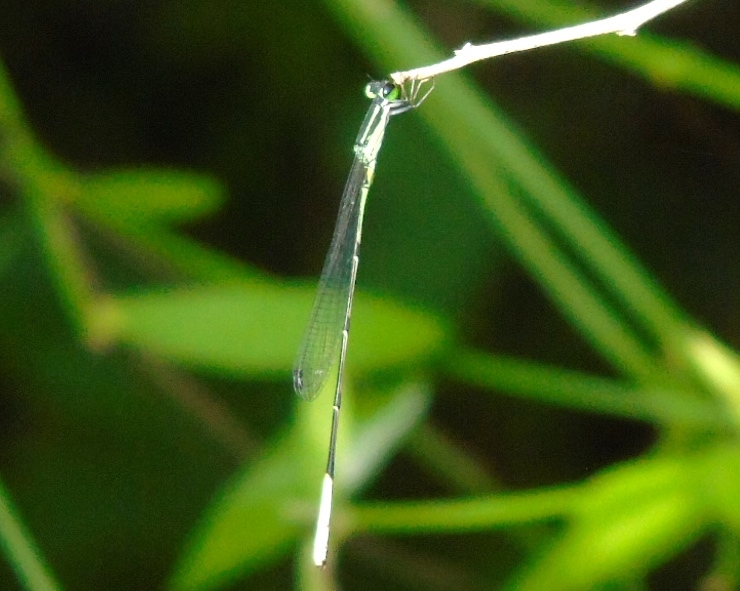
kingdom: Animalia
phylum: Arthropoda
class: Insecta
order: Odonata
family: Coenagrionidae
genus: Leptobasis
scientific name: Leptobasis melinogaster
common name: Cream-tipped swampdamsel
